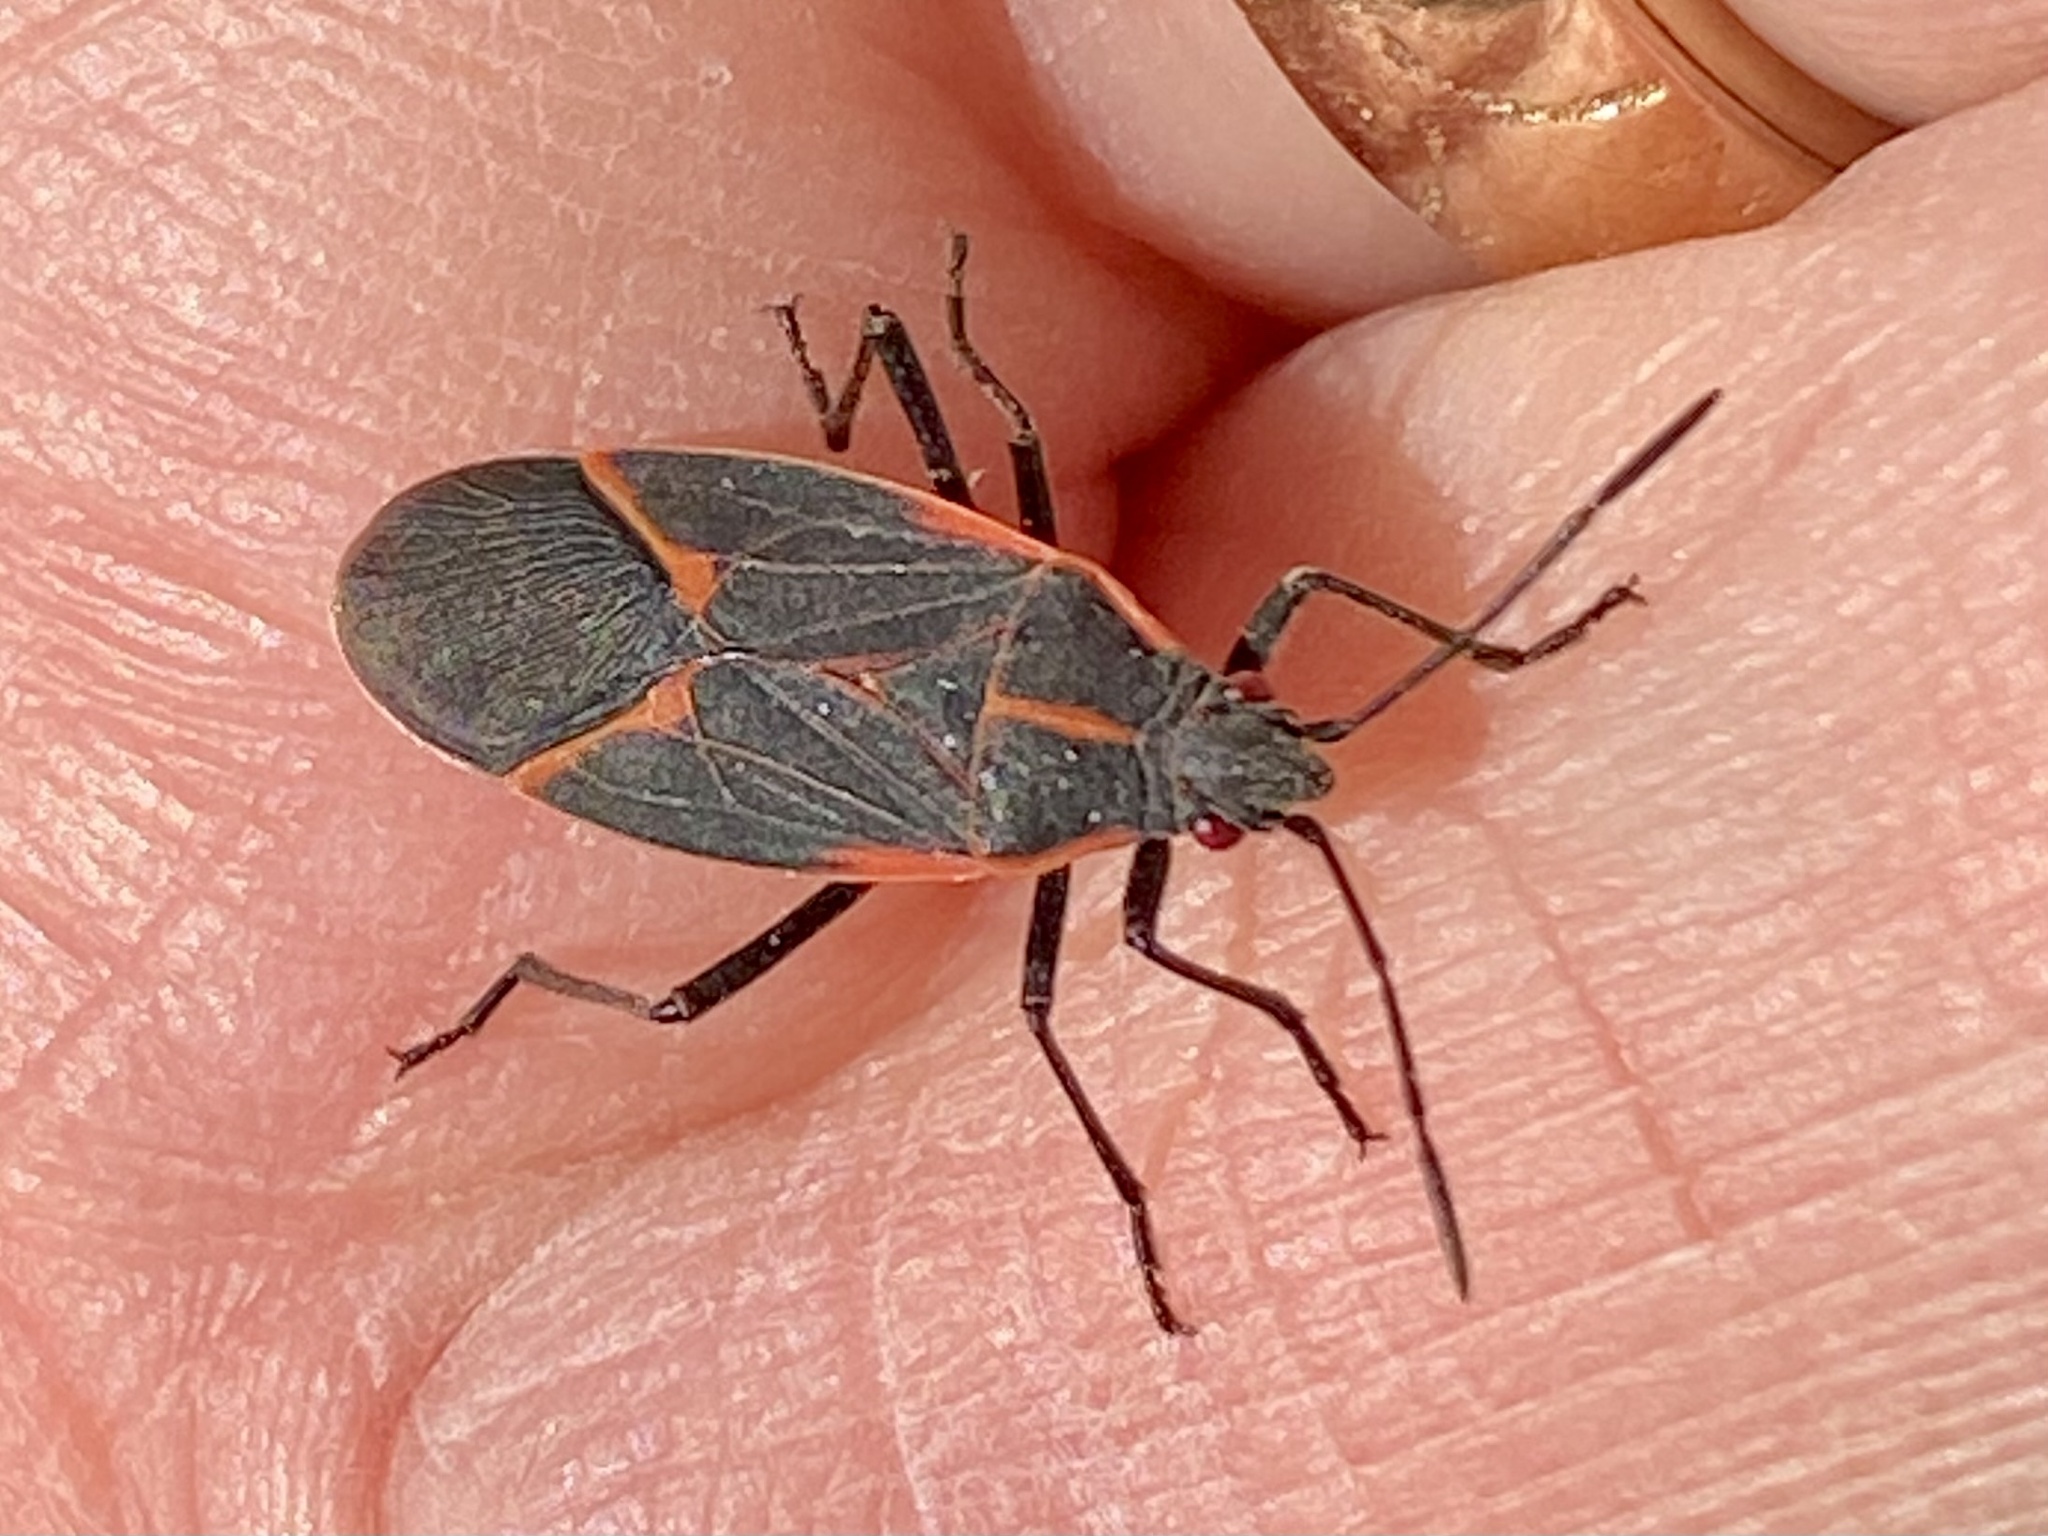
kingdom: Animalia
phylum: Arthropoda
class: Insecta
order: Hemiptera
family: Rhopalidae
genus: Boisea
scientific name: Boisea trivittata
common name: Boxelder bug
